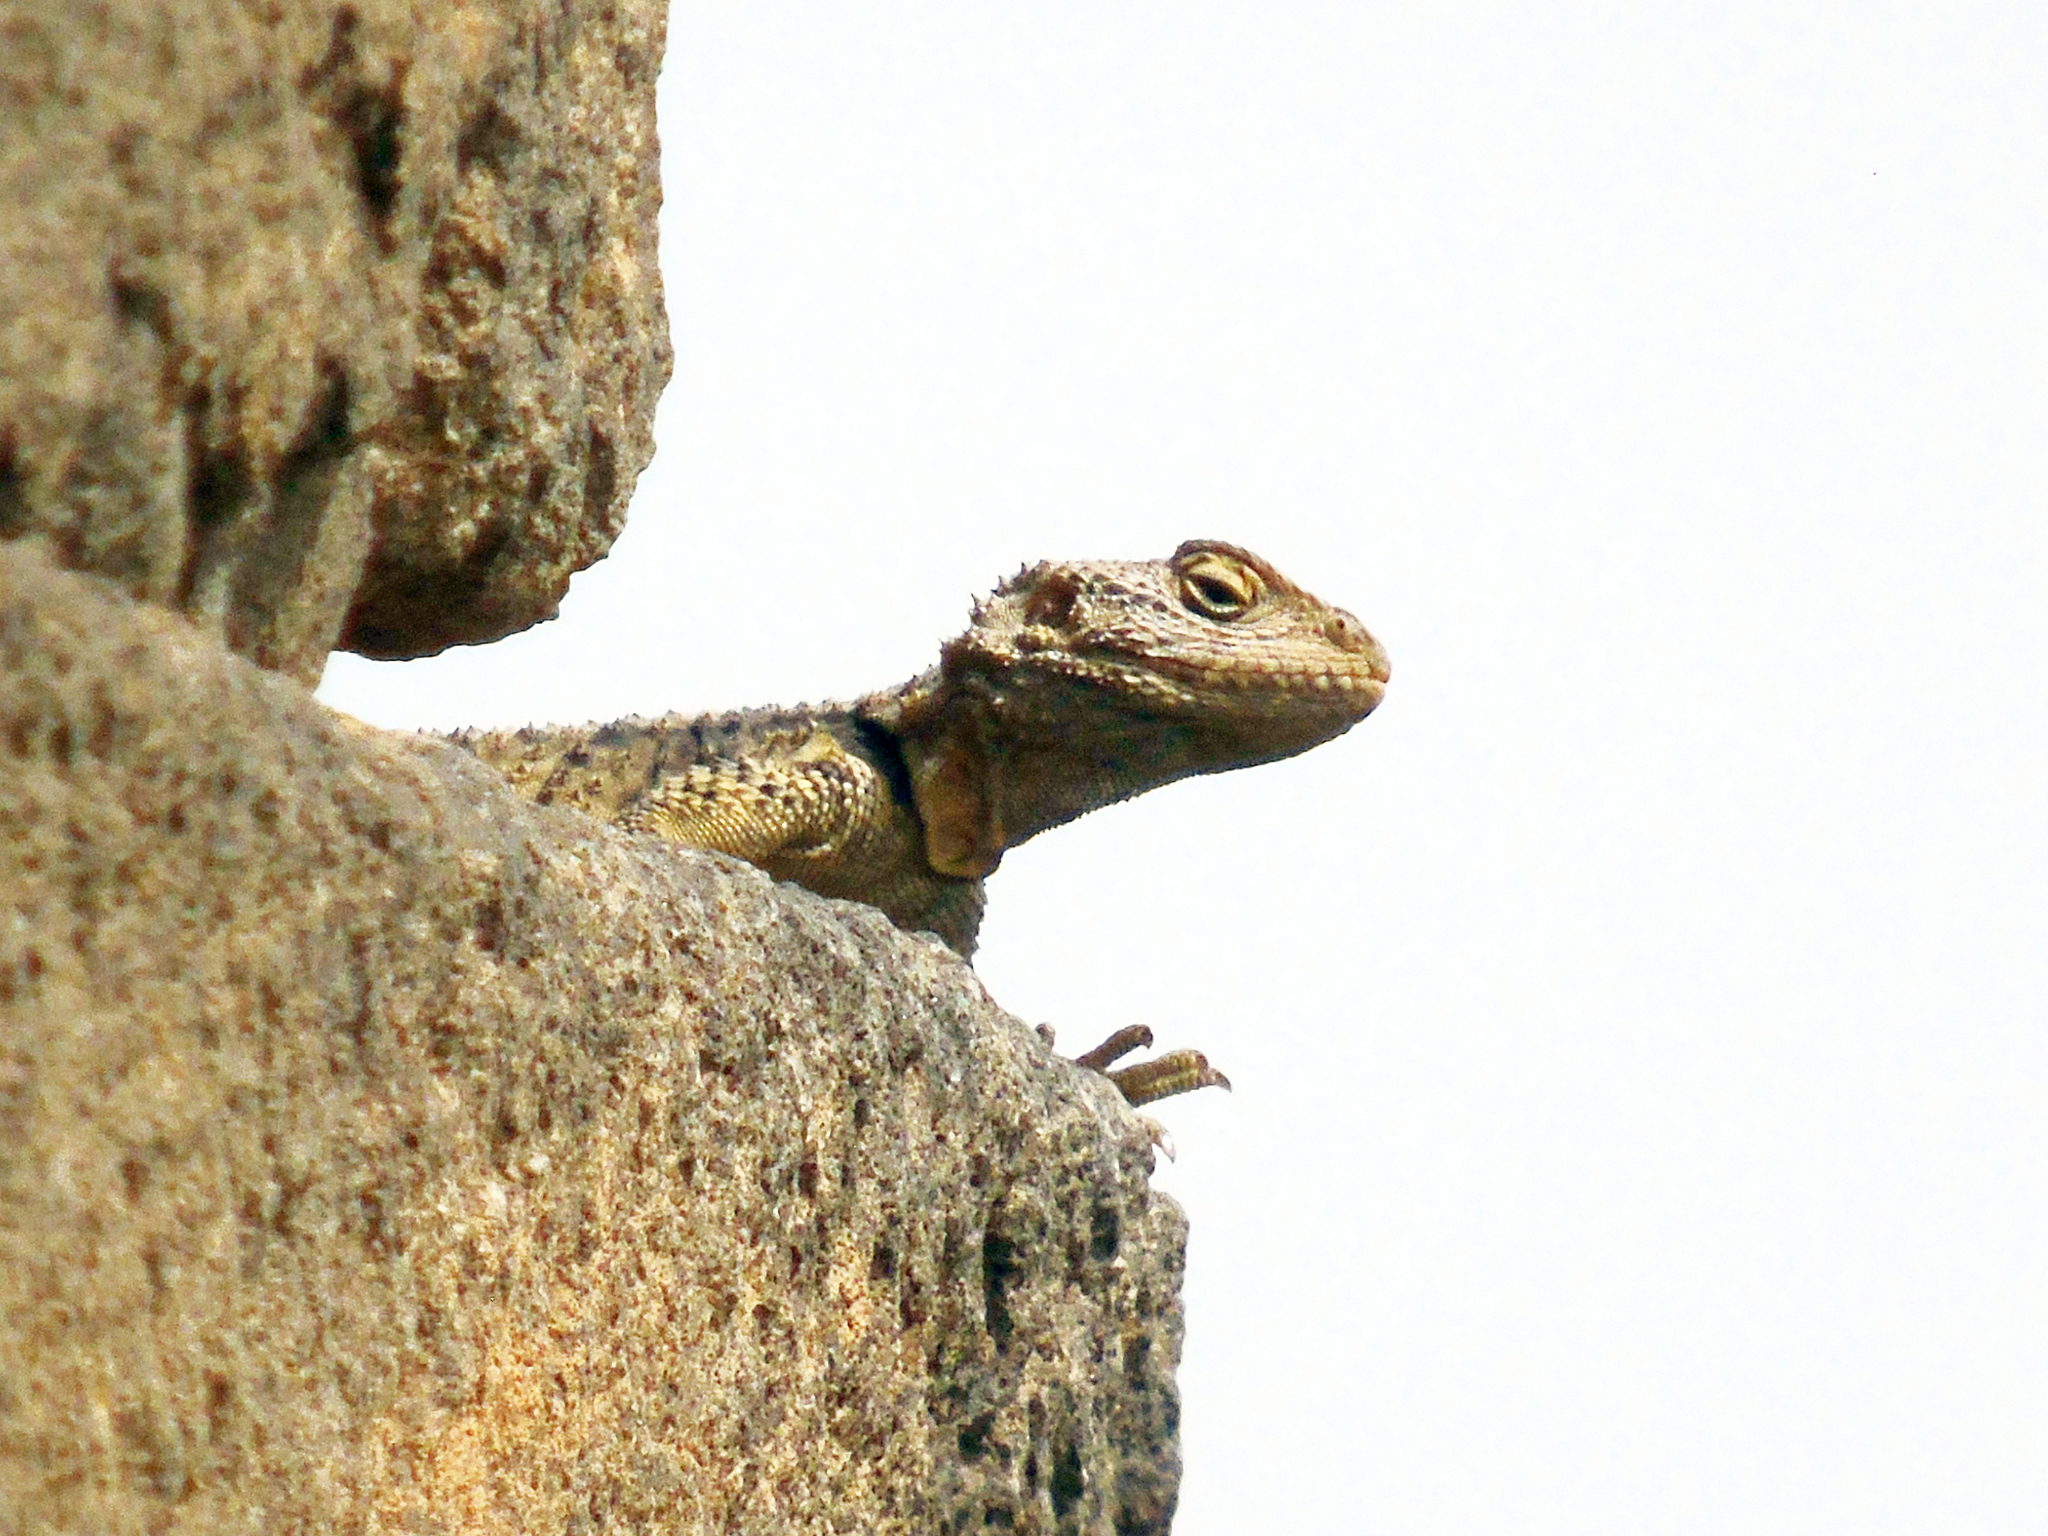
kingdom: Animalia
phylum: Chordata
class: Squamata
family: Agamidae
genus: Stellagama
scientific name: Stellagama stellio
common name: Starred agama
